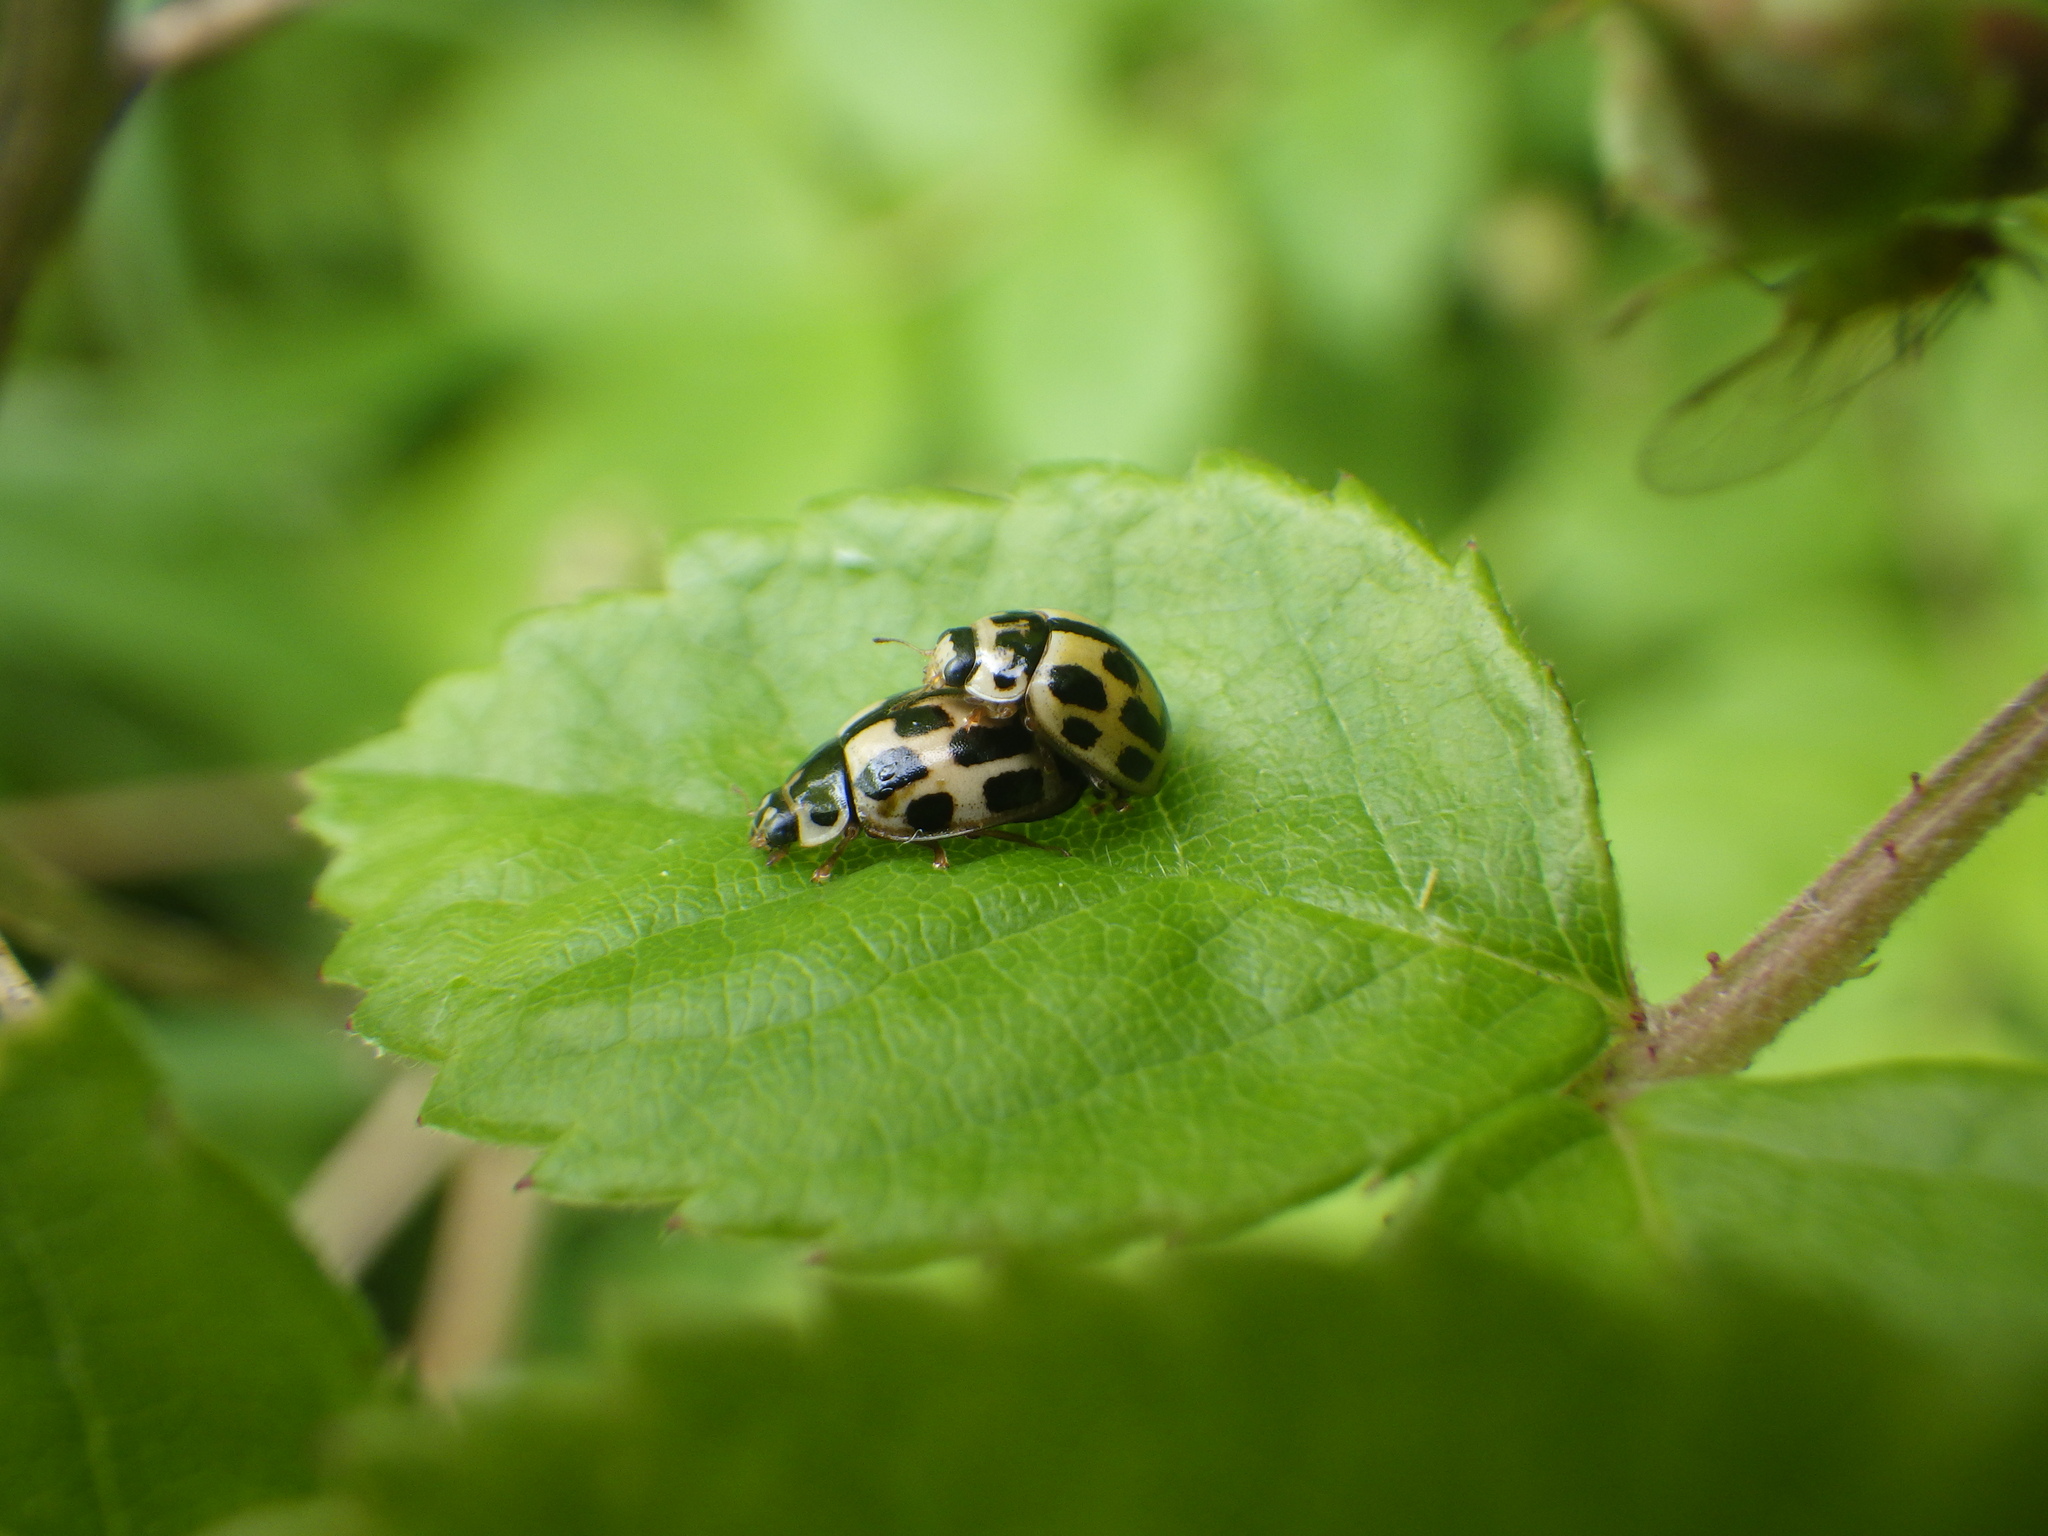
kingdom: Animalia
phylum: Arthropoda
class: Insecta
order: Coleoptera
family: Coccinellidae
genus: Propylaea
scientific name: Propylaea quatuordecimpunctata
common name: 14-spotted ladybird beetle
